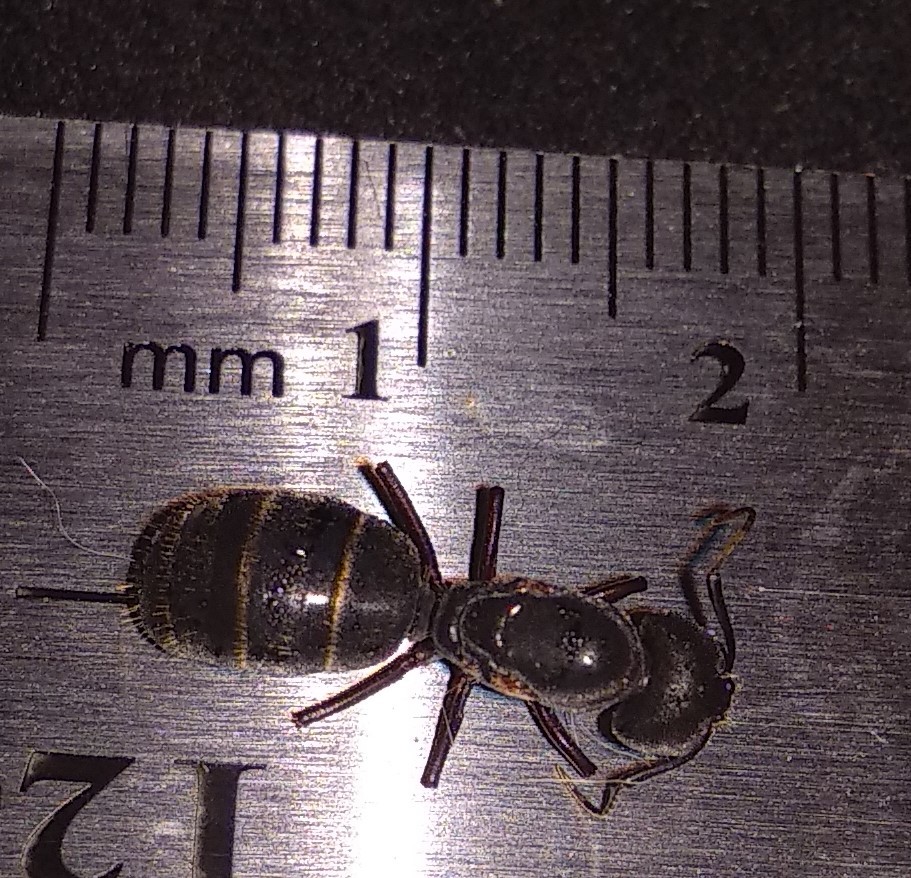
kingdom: Animalia
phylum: Arthropoda
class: Insecta
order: Hymenoptera
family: Formicidae
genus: Camponotus
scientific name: Camponotus pennsylvanicus
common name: Black carpenter ant
